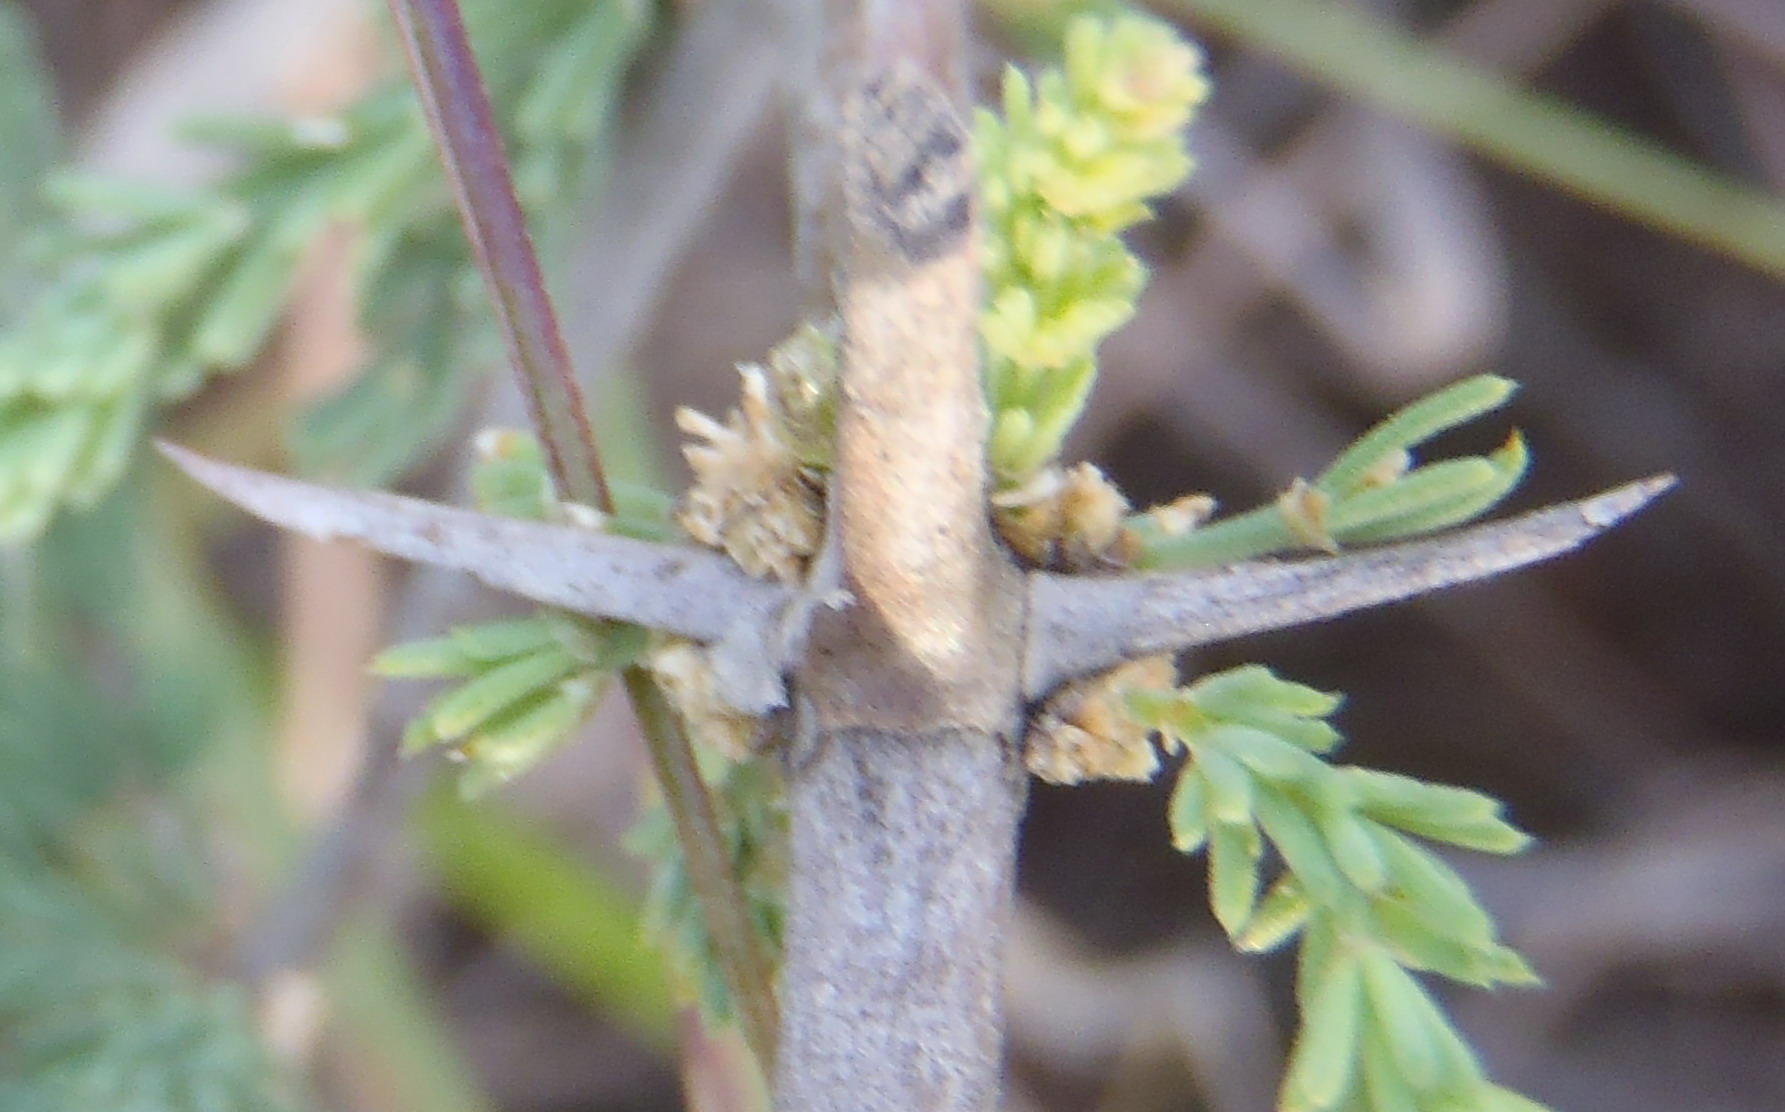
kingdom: Plantae
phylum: Tracheophyta
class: Liliopsida
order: Asparagales
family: Asparagaceae
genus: Asparagus
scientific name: Asparagus capensis
